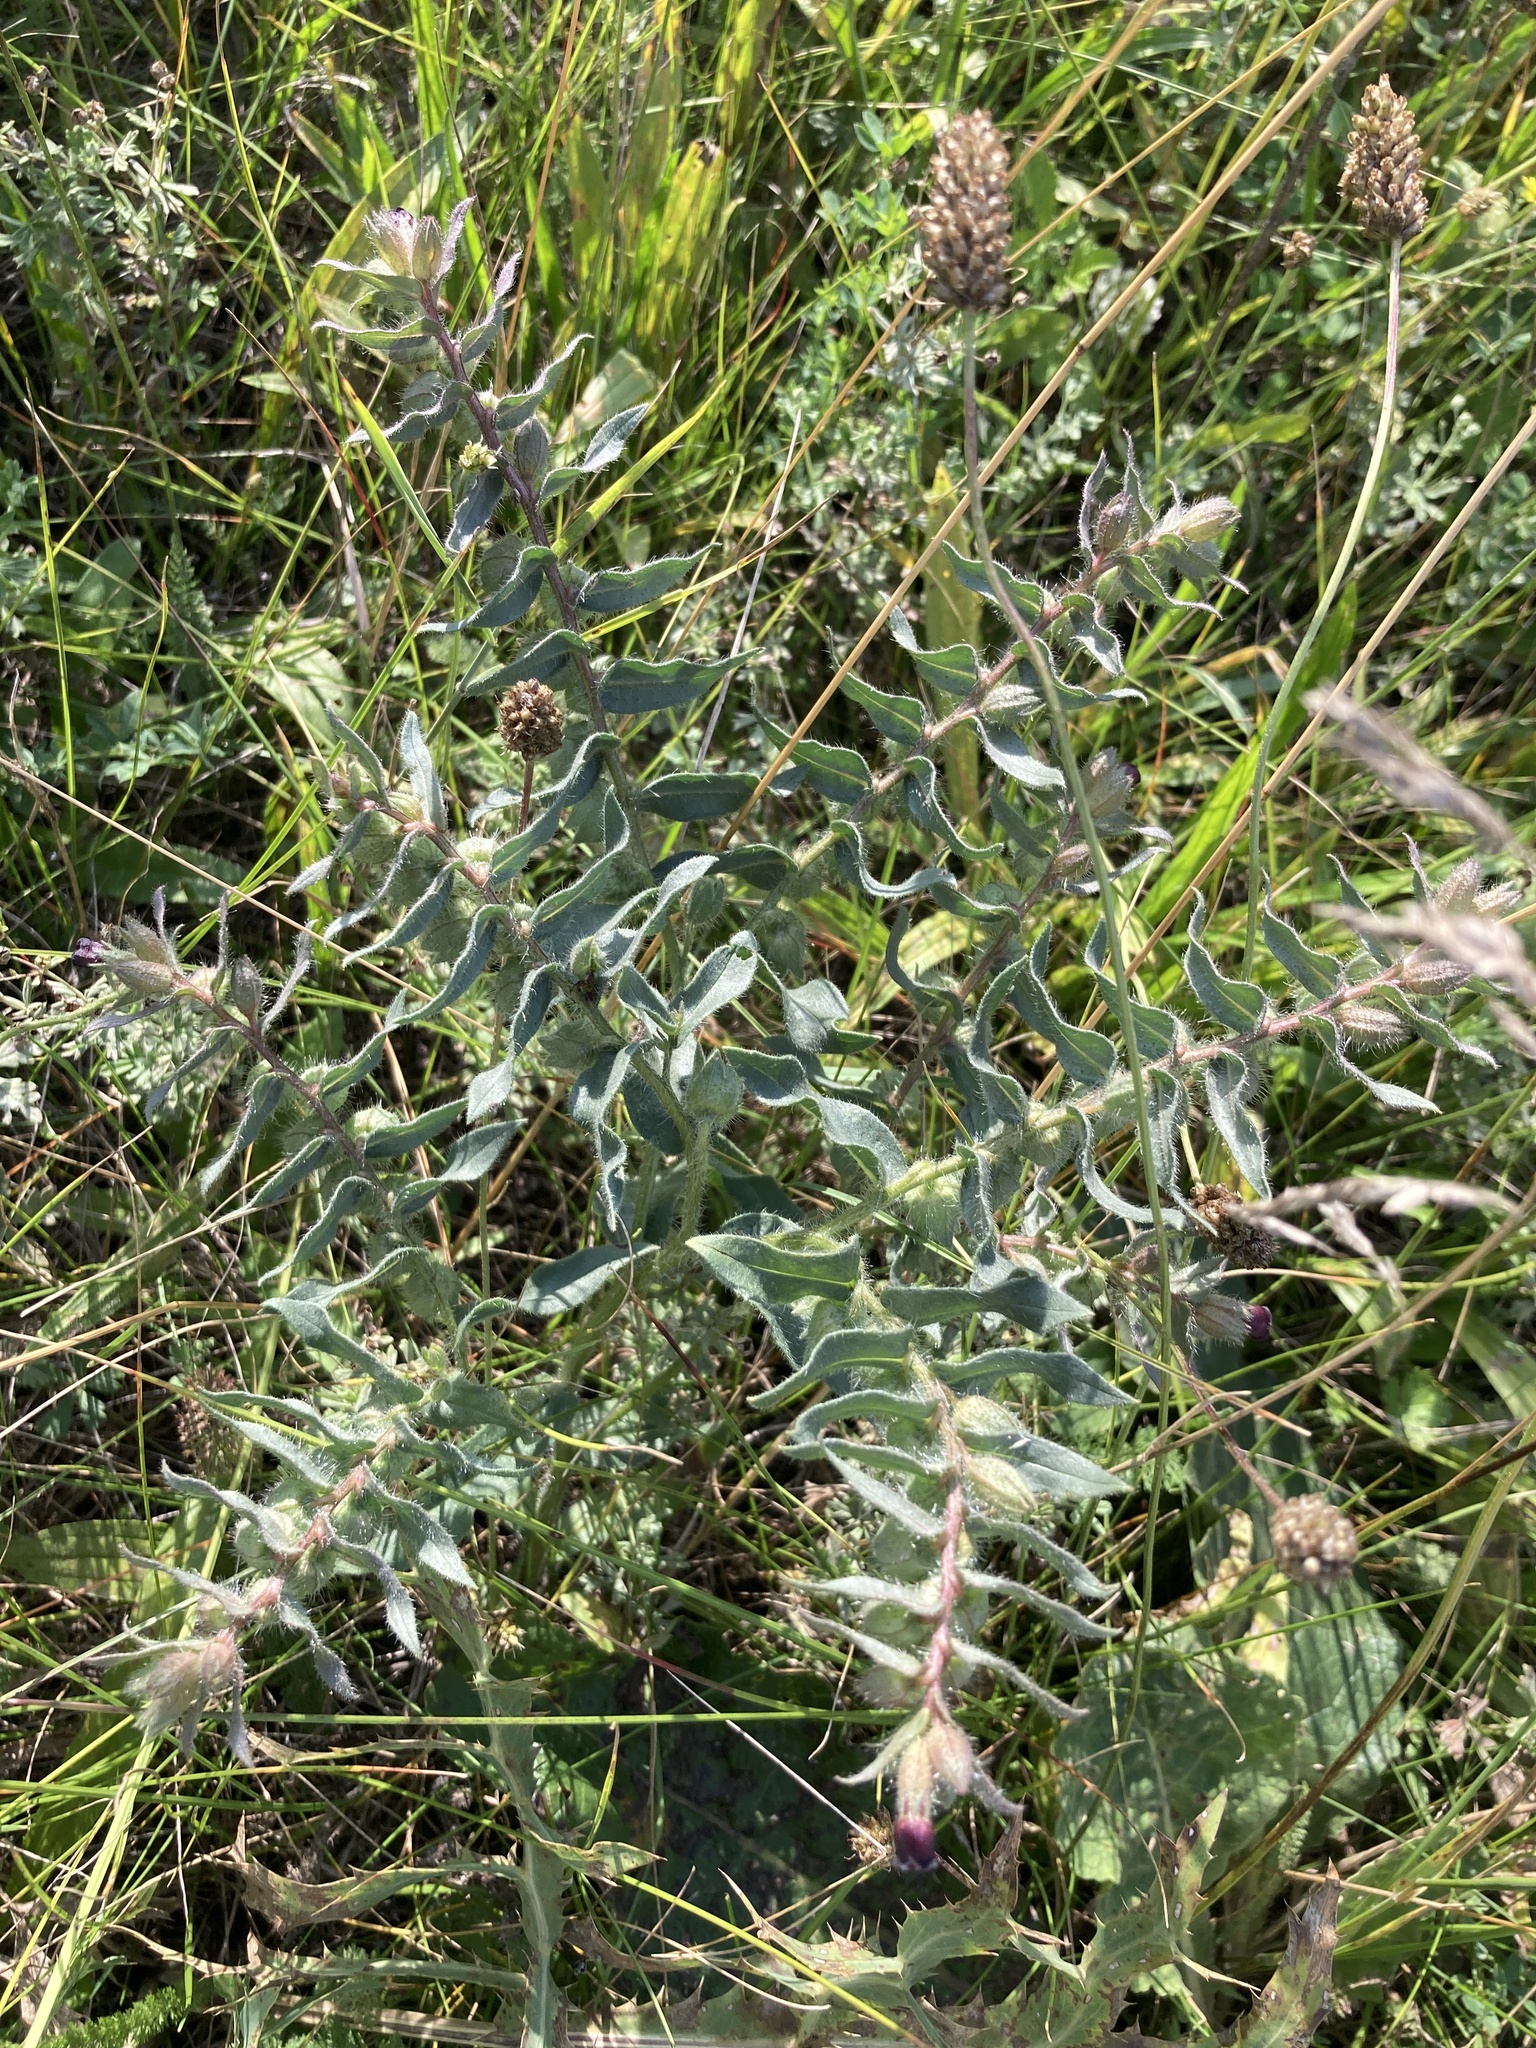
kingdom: Plantae
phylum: Tracheophyta
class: Magnoliopsida
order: Boraginales
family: Boraginaceae
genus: Nonea
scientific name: Nonea pulla
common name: Brown nonea
